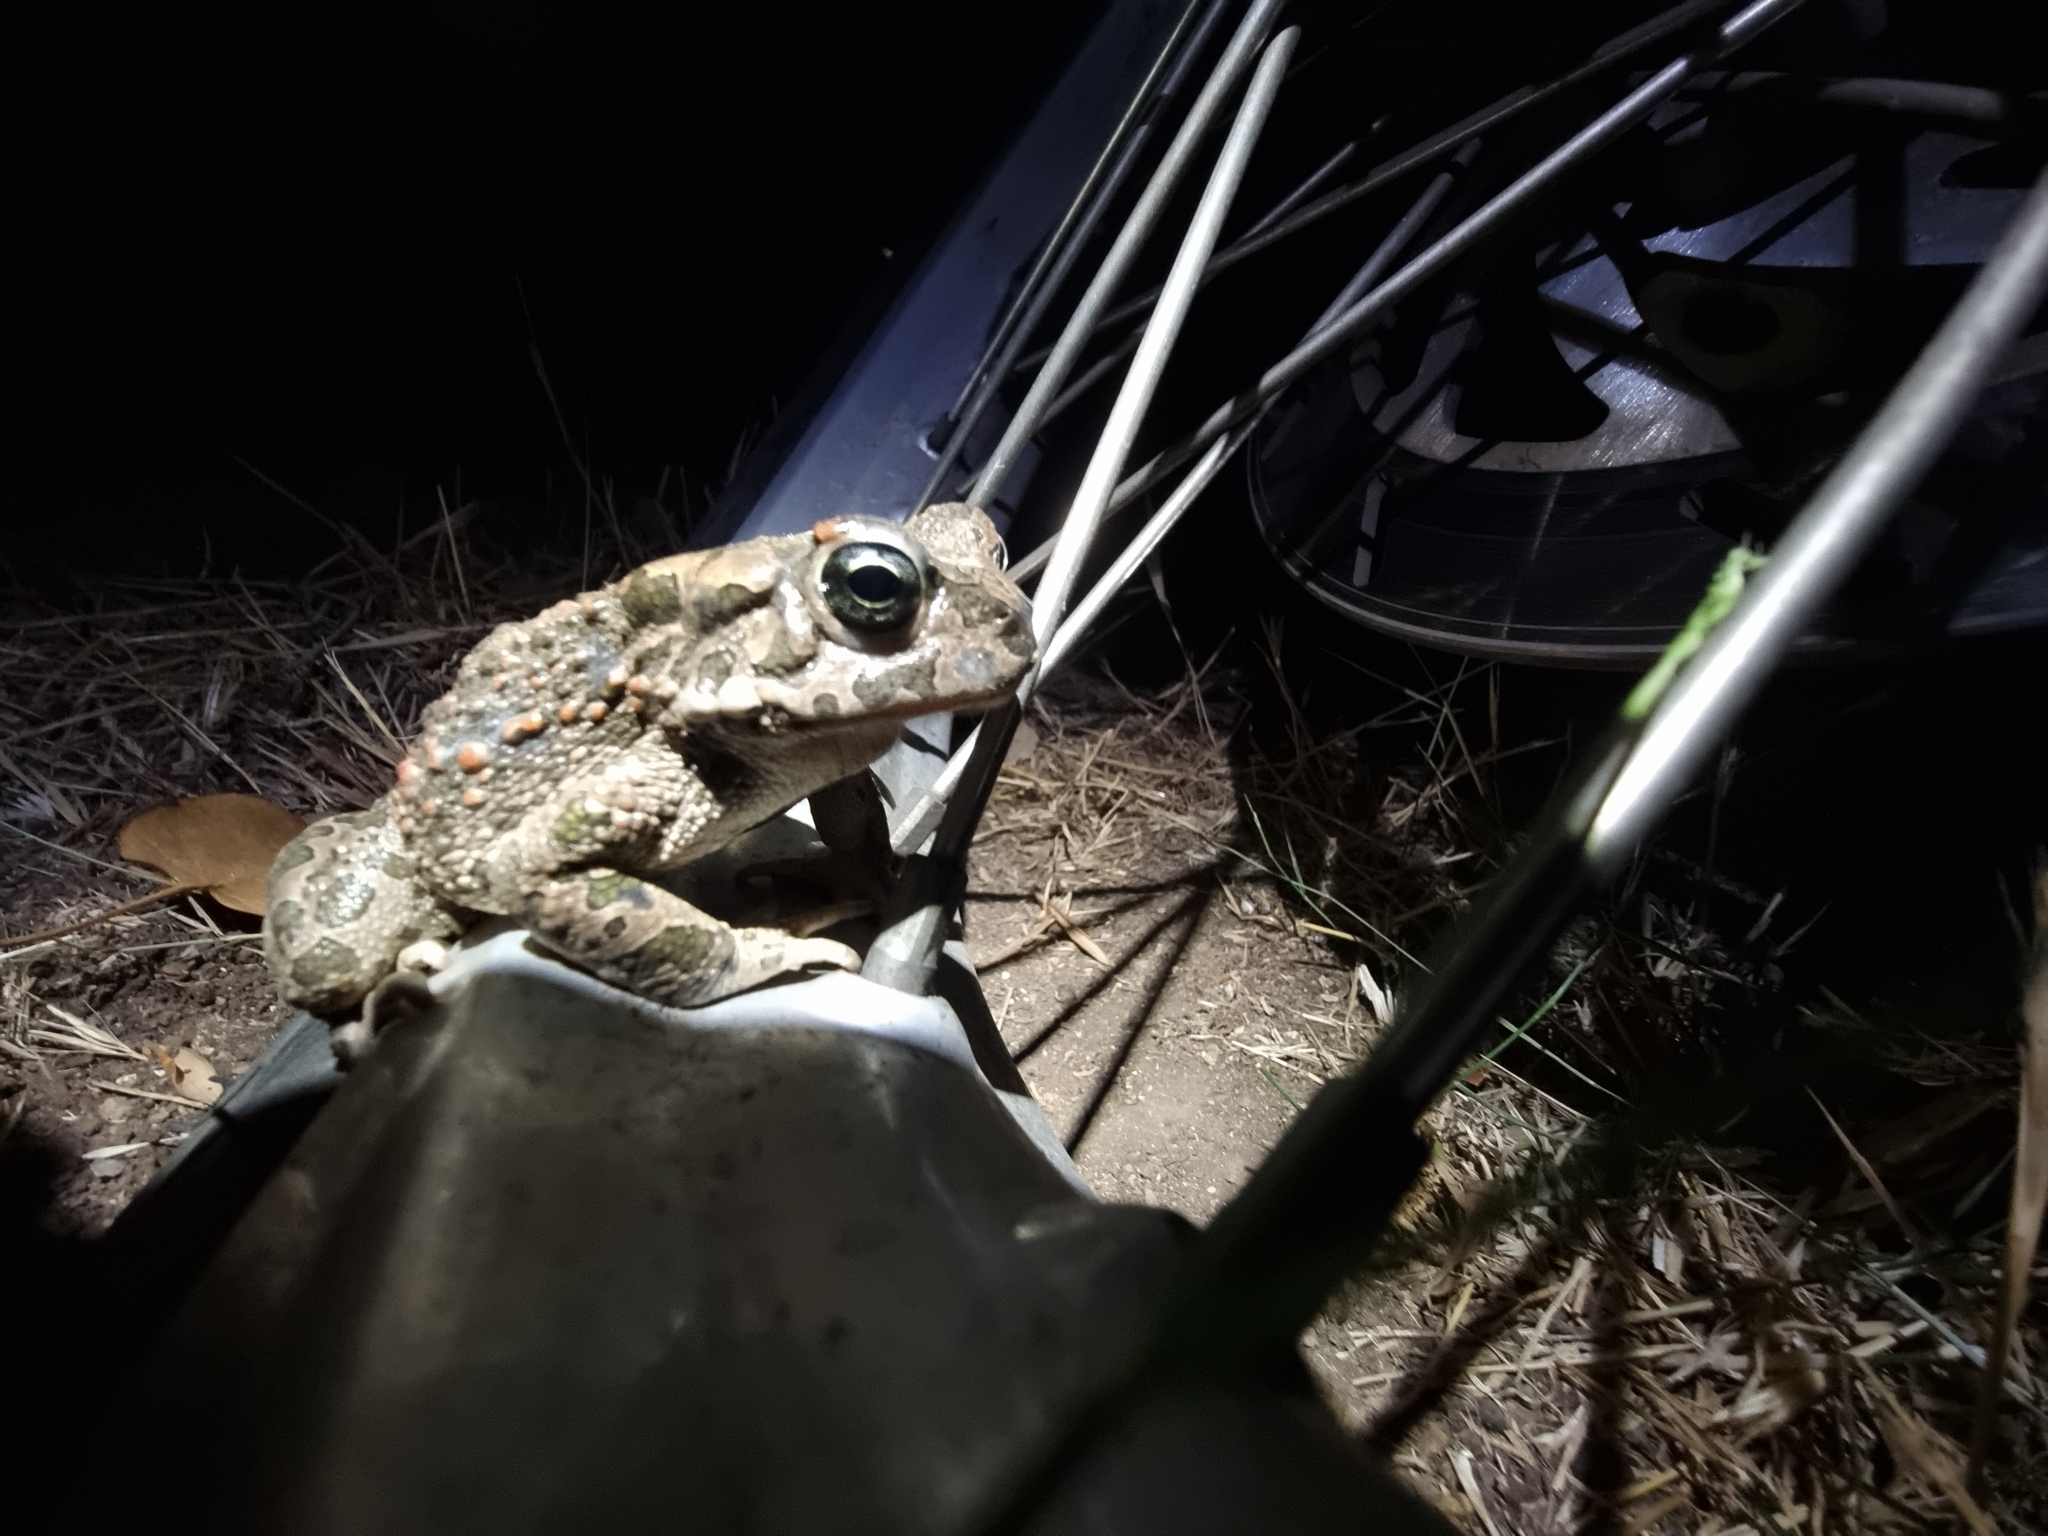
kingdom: Animalia
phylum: Chordata
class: Amphibia
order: Anura
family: Bufonidae
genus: Bufotes
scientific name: Bufotes viridis
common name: European green toad
